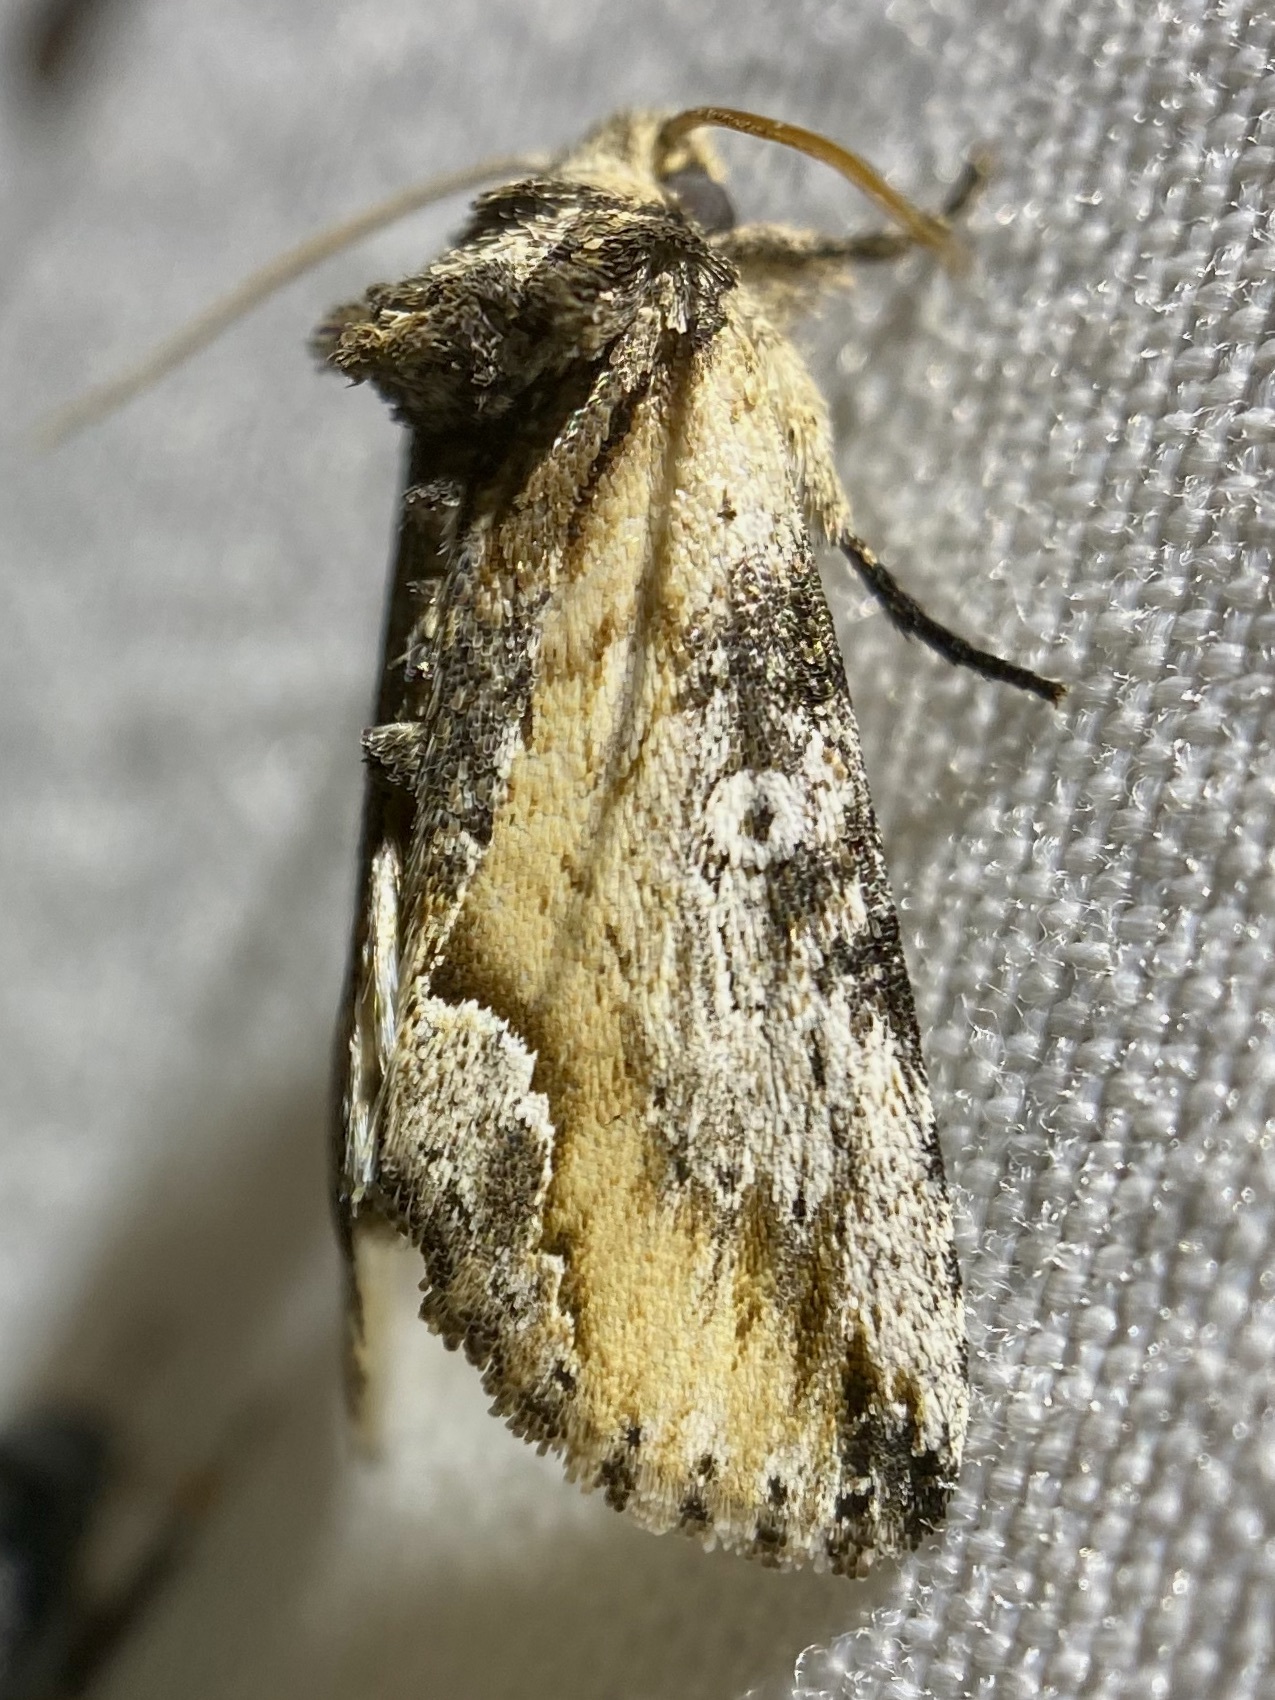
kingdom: Animalia
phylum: Arthropoda
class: Insecta
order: Lepidoptera
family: Noctuidae
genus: Prothrinax
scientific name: Prothrinax luteomedia
